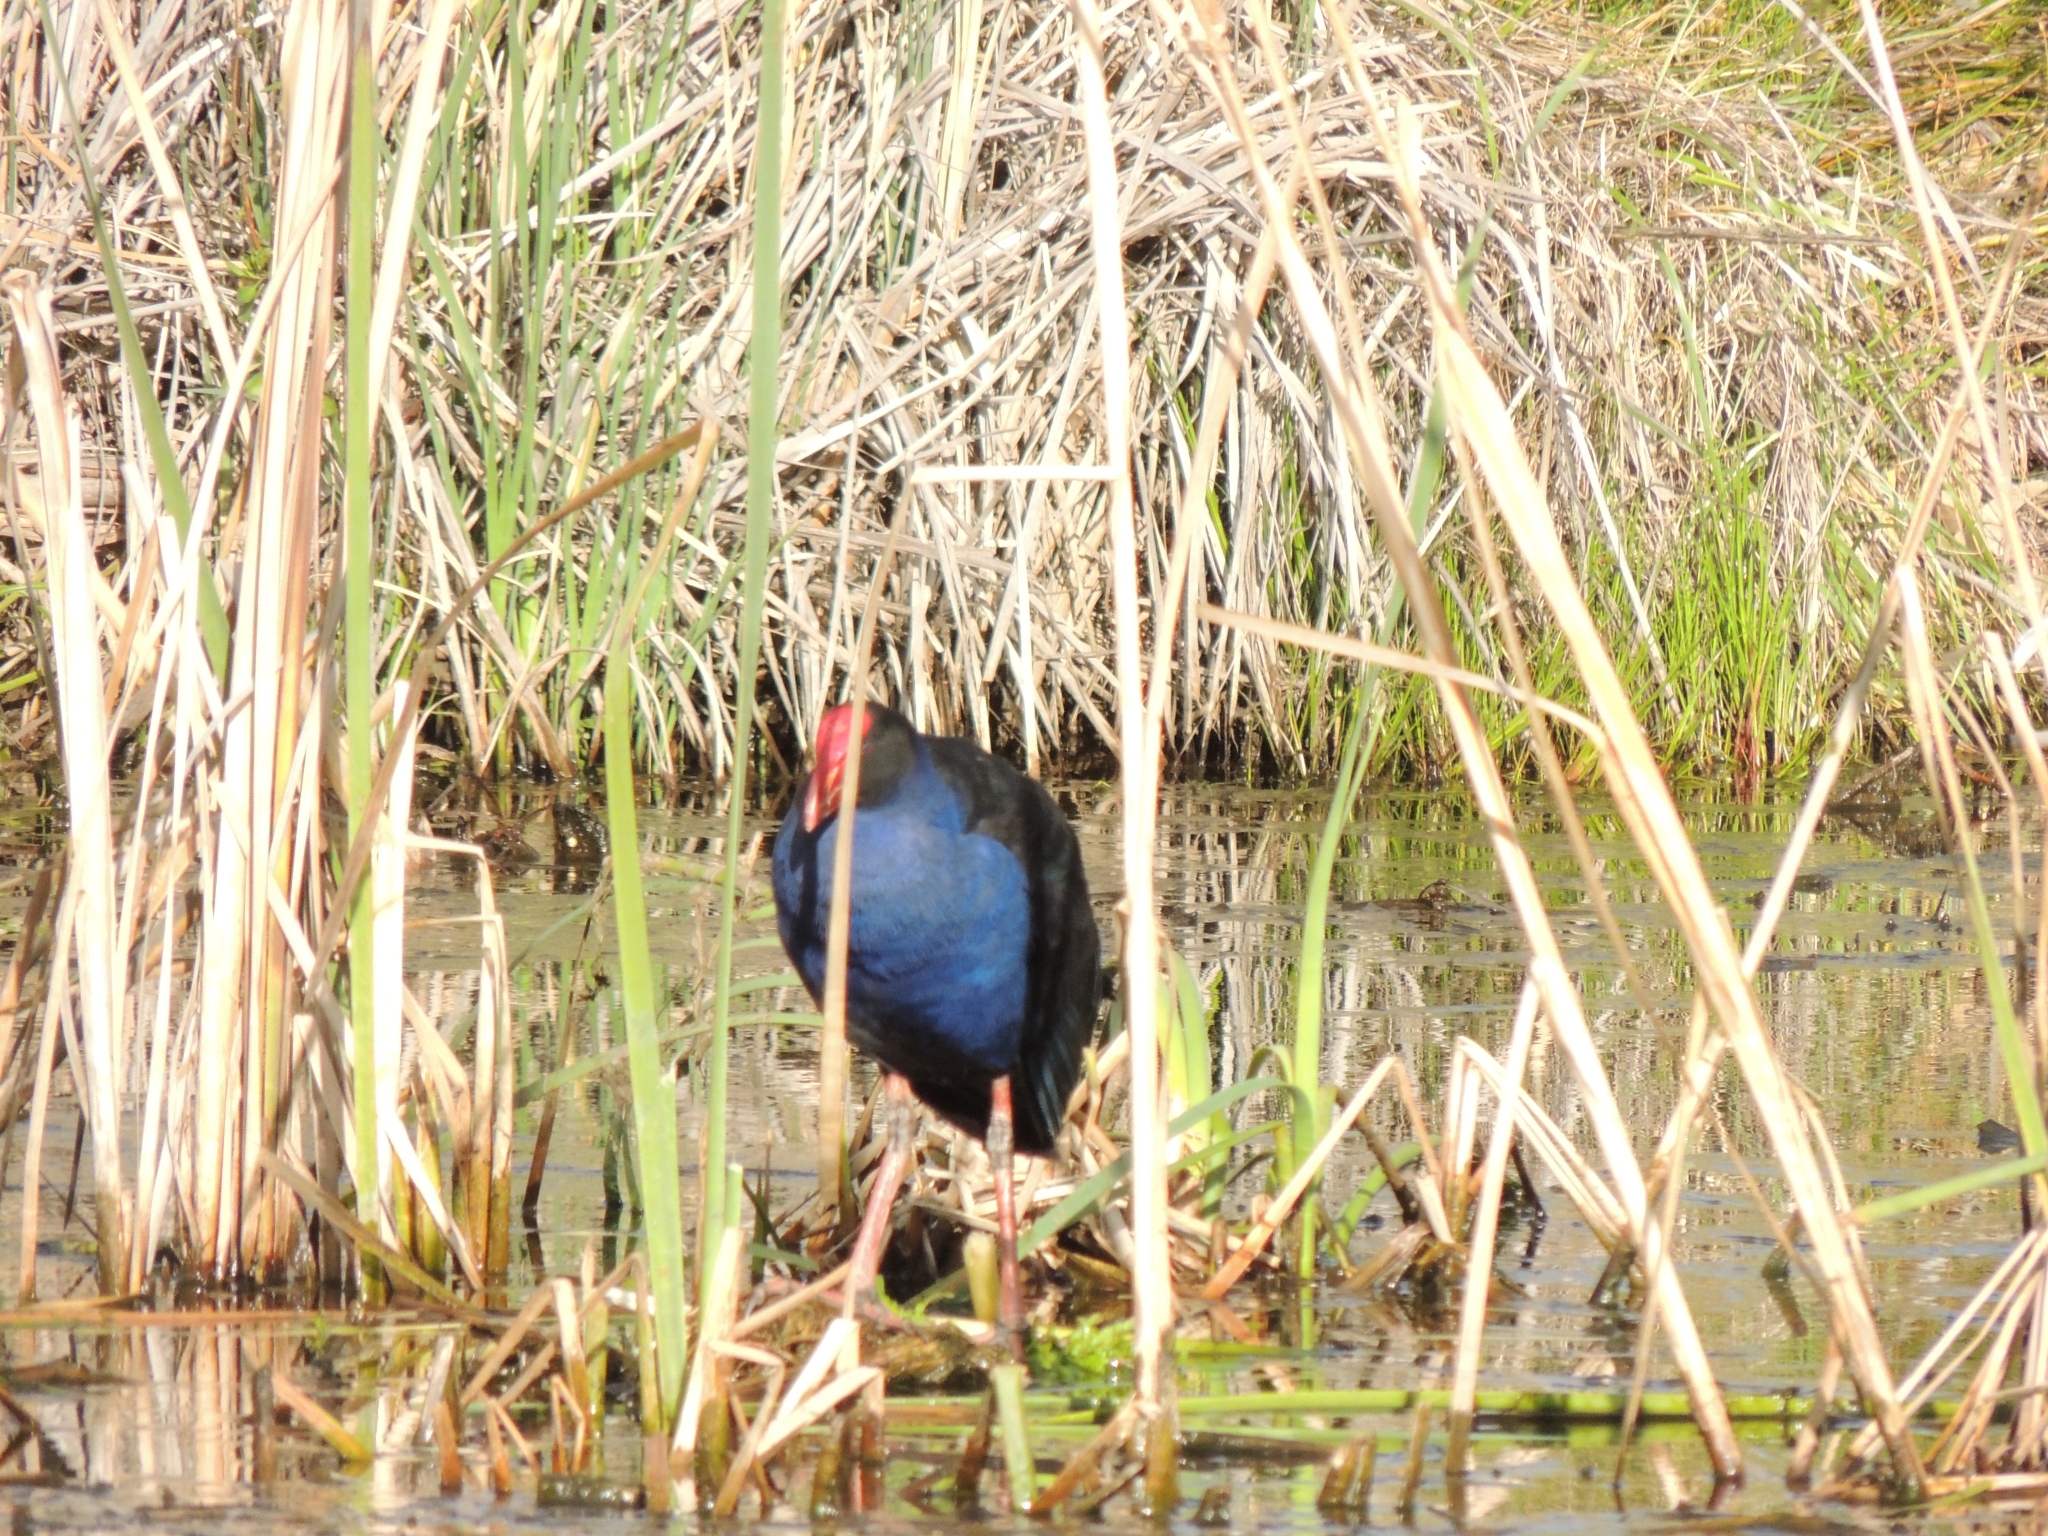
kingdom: Animalia
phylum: Chordata
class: Aves
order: Gruiformes
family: Rallidae
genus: Porphyrio
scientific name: Porphyrio melanotus
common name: Australasian swamphen
